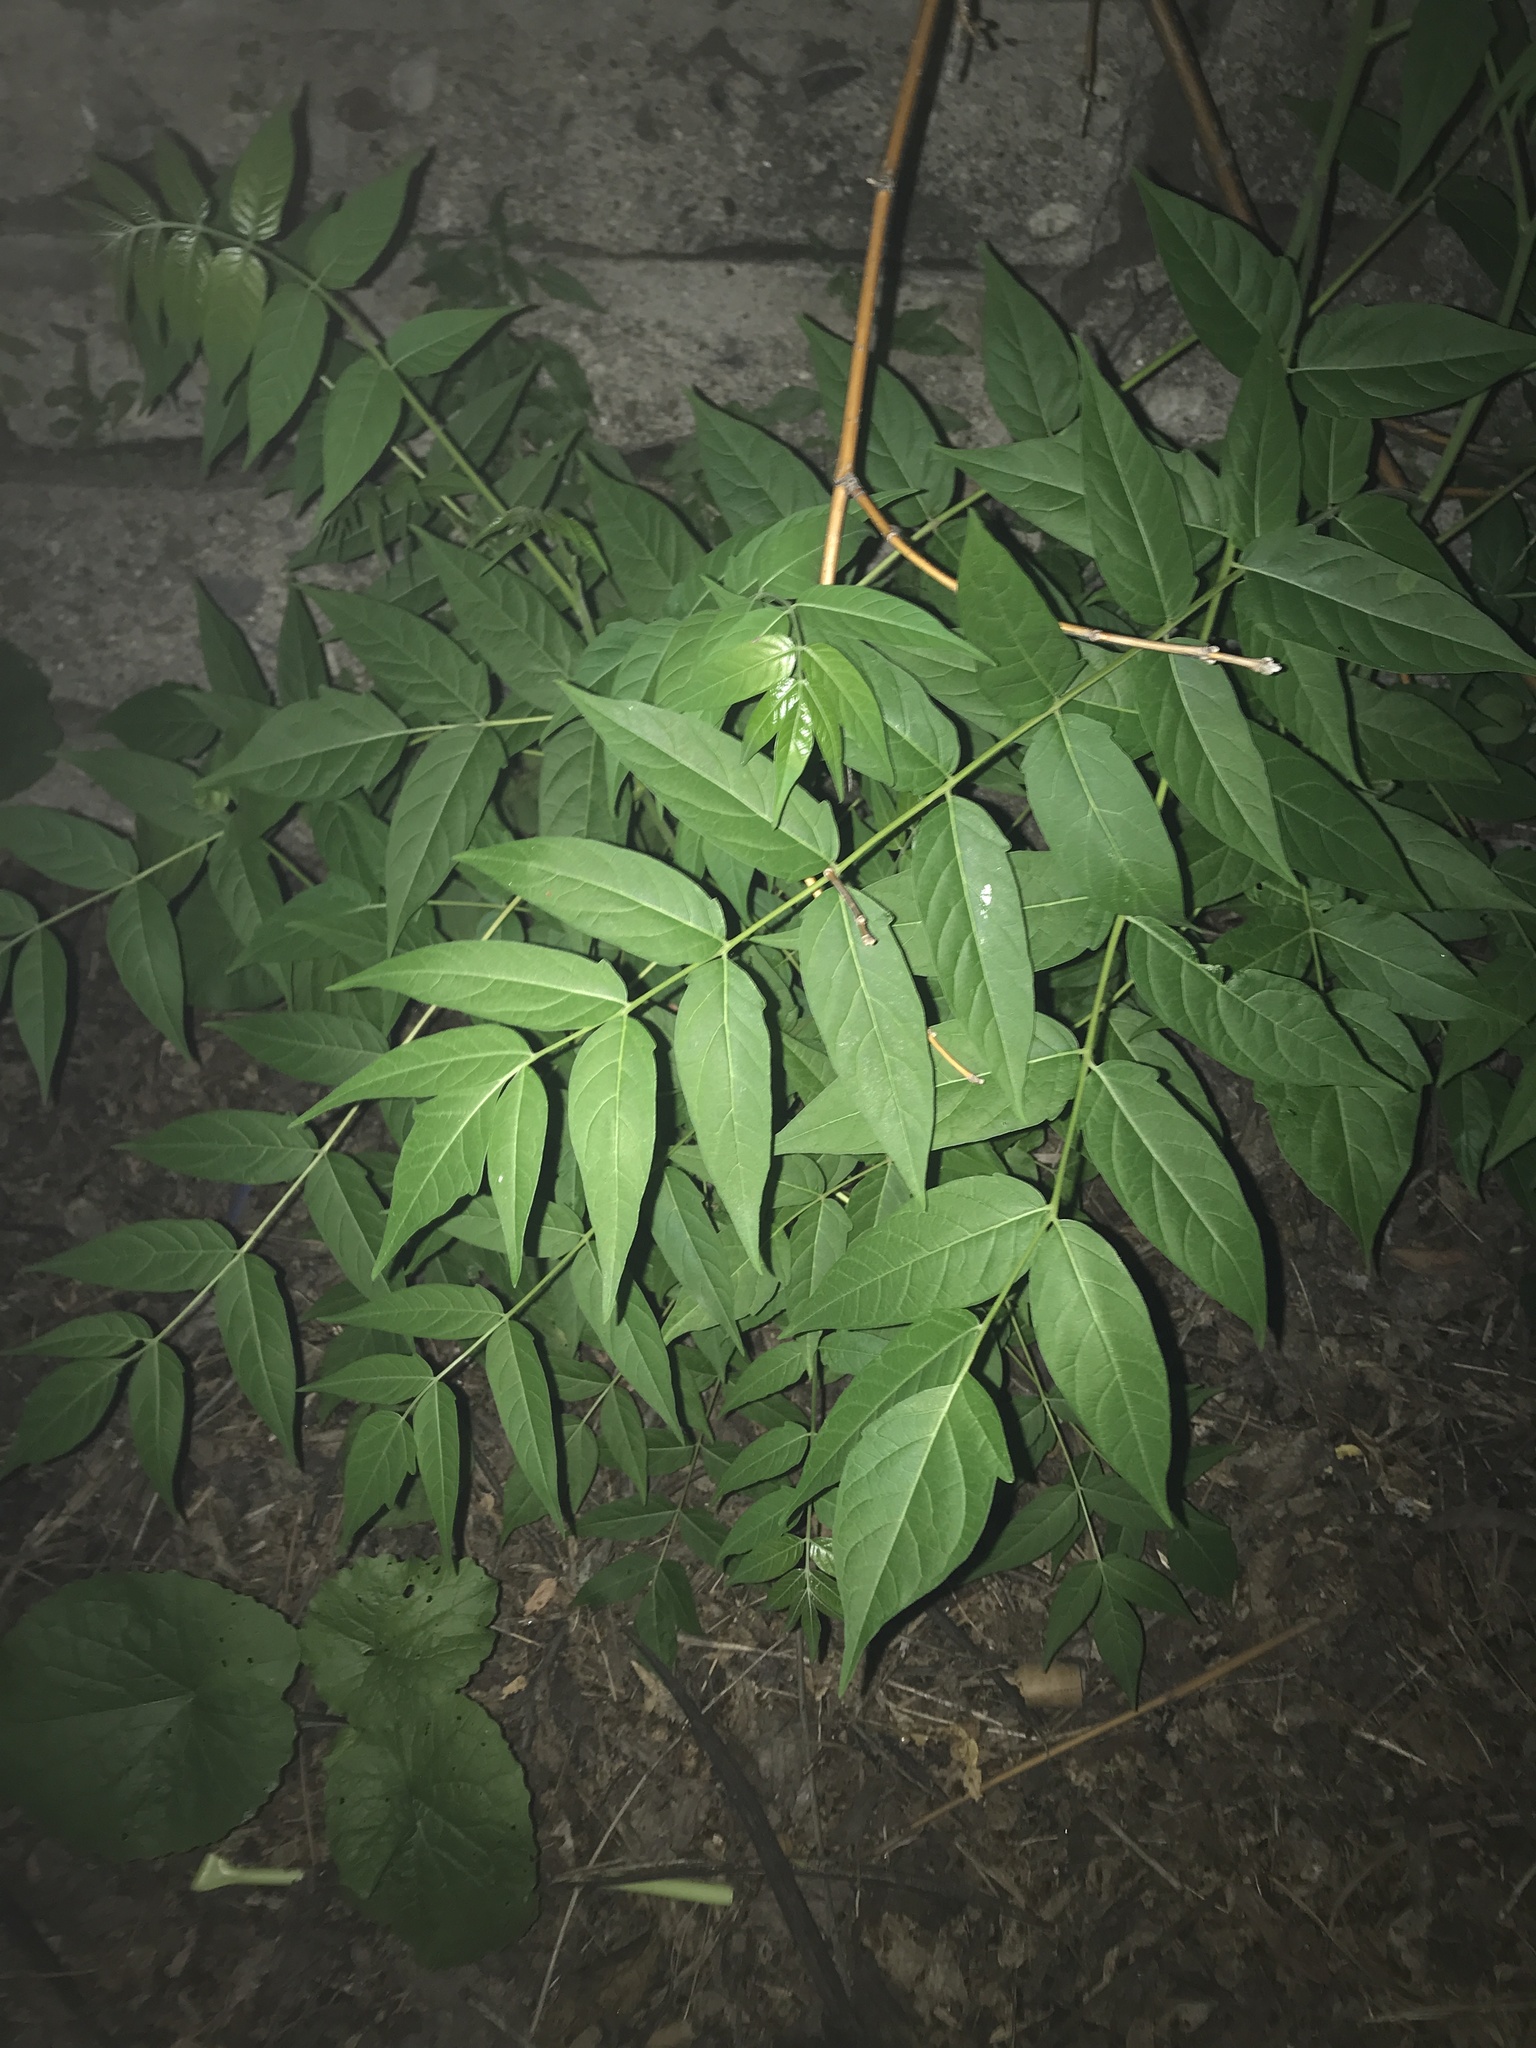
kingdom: Plantae
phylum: Tracheophyta
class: Magnoliopsida
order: Sapindales
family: Simaroubaceae
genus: Ailanthus
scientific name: Ailanthus altissima
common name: Tree-of-heaven
